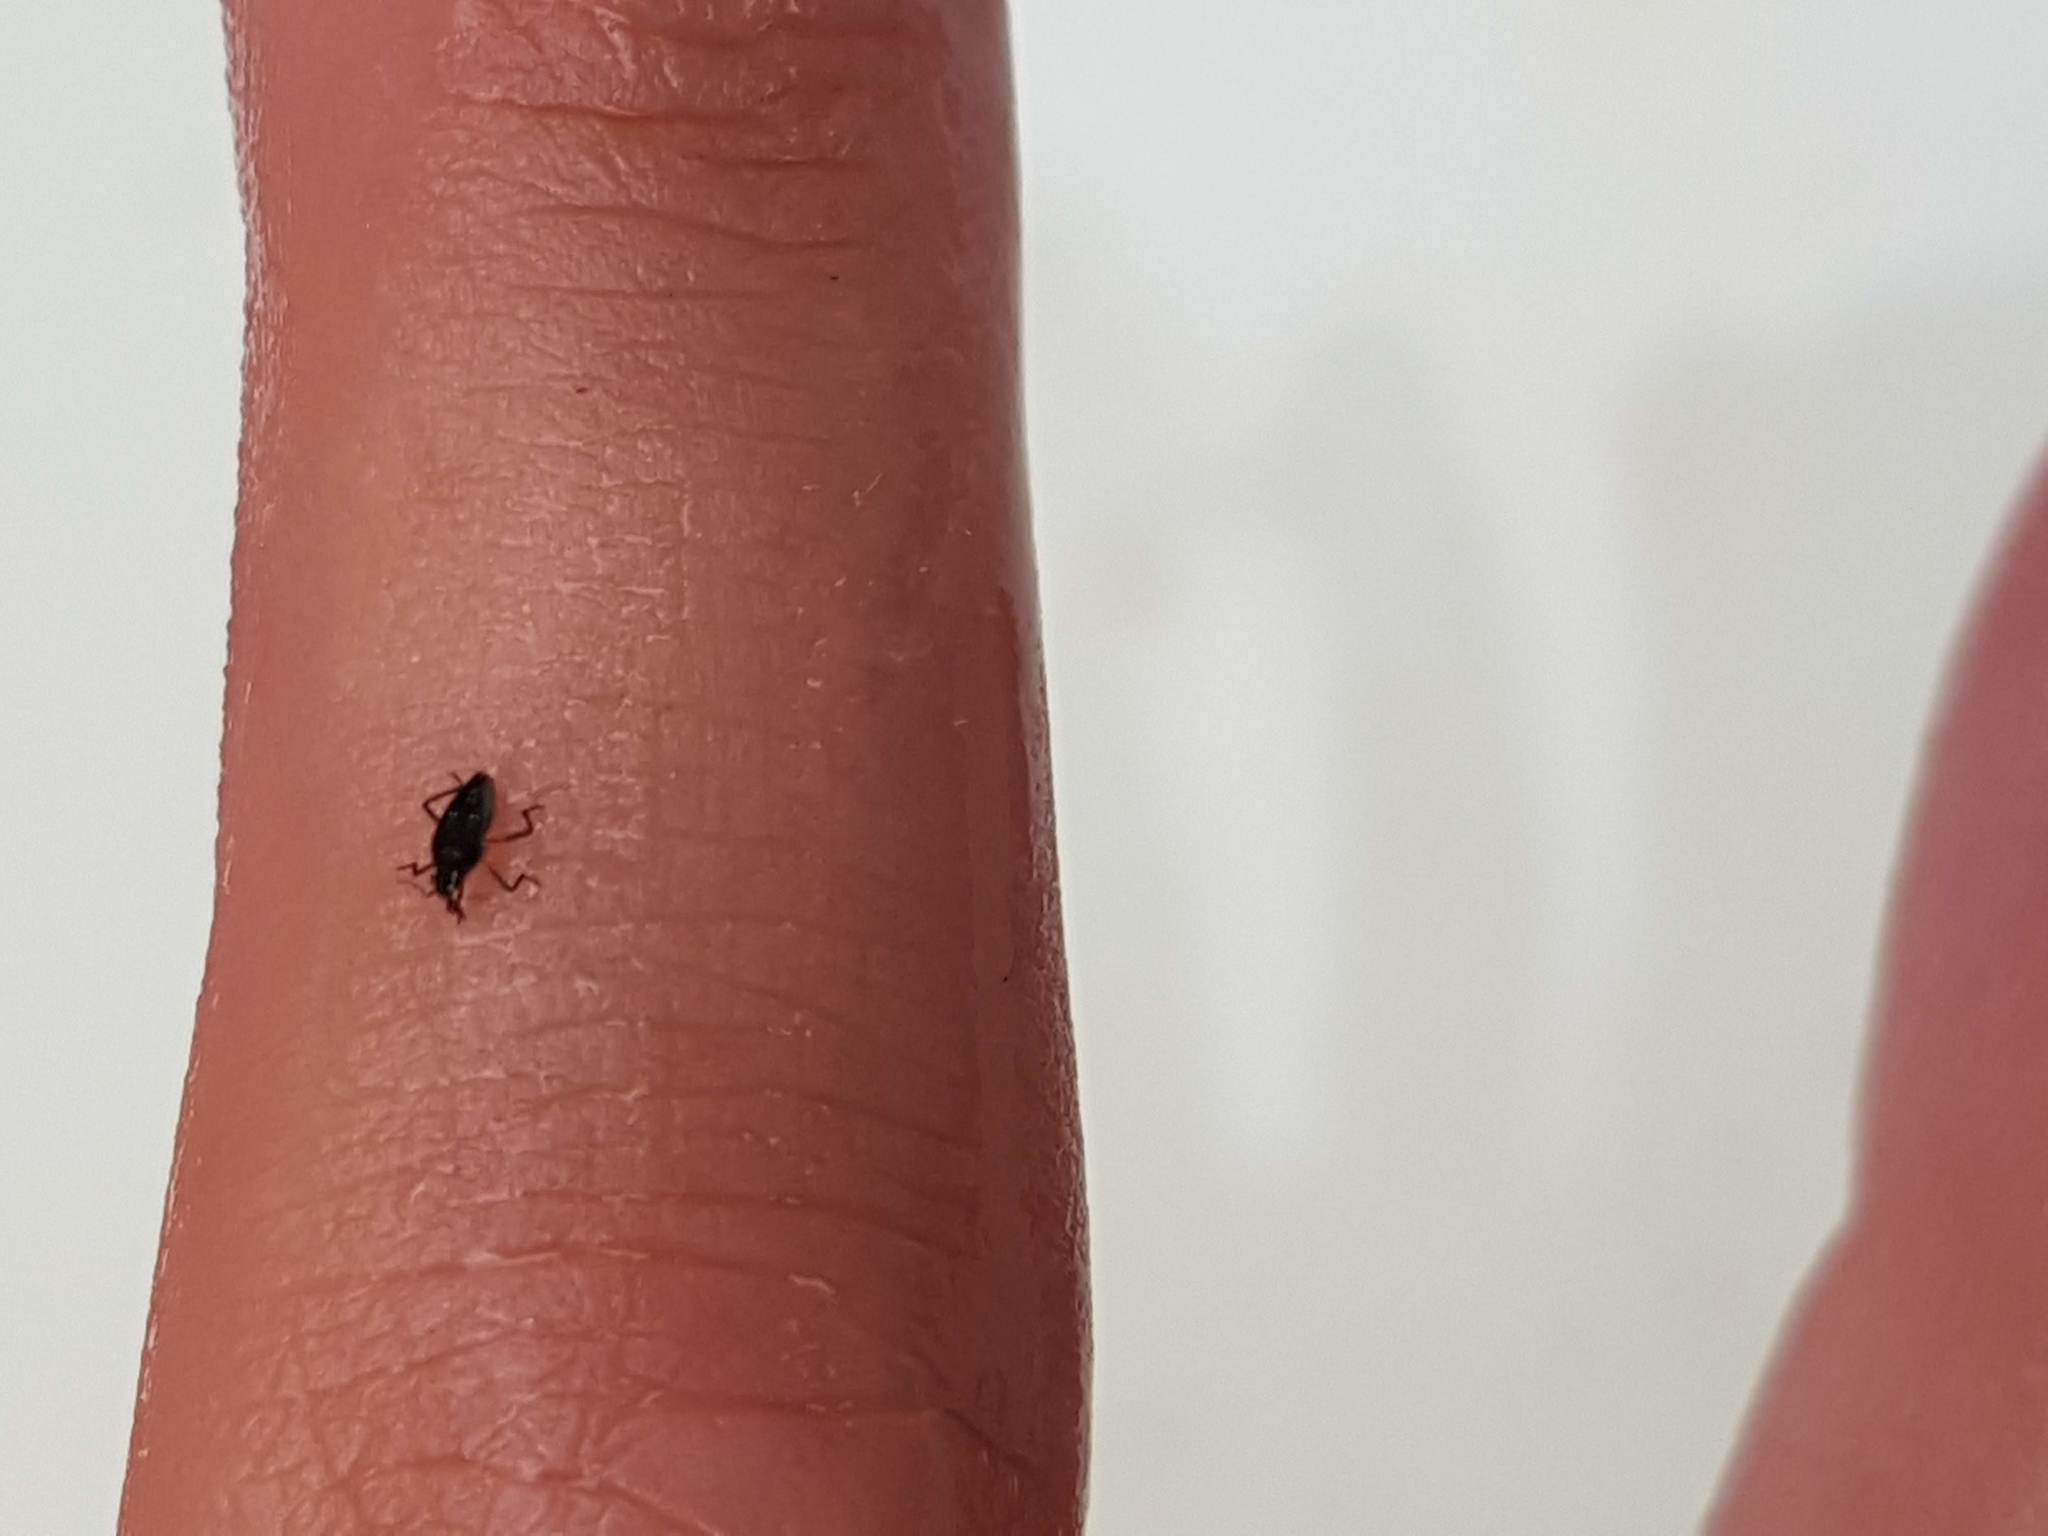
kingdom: Animalia
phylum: Arthropoda
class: Insecta
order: Hemiptera
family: Veliidae
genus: Microvelia
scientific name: Microvelia macgregori
